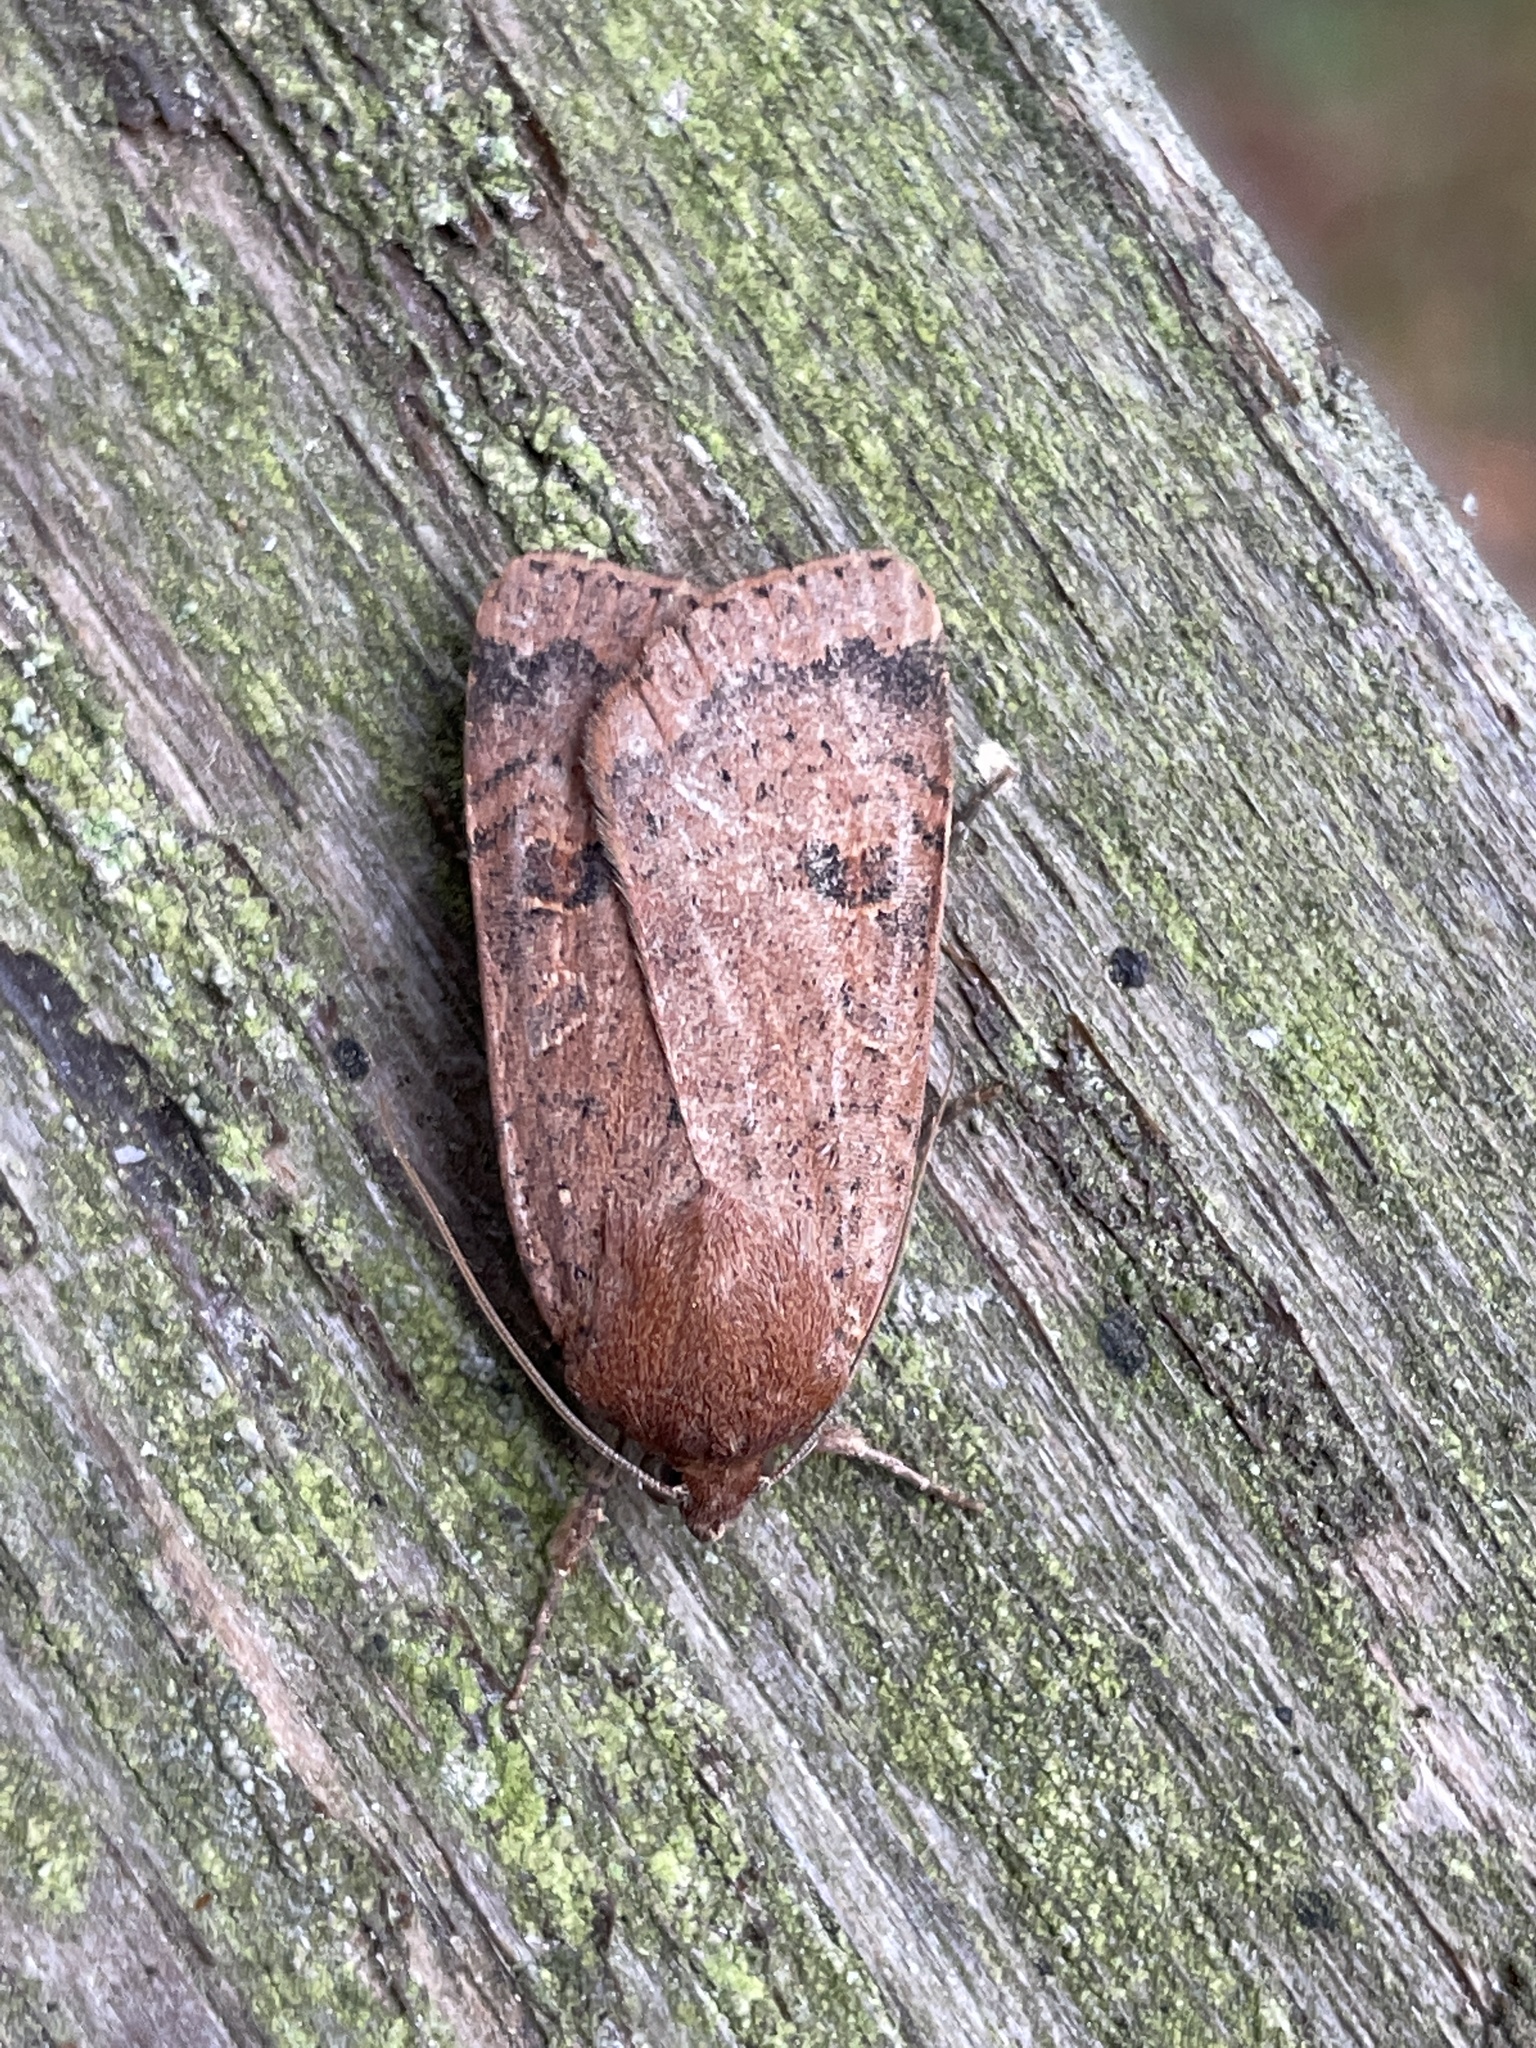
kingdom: Animalia
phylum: Arthropoda
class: Insecta
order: Lepidoptera
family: Noctuidae
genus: Noctua
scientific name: Noctua comes
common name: Lesser yellow underwing
